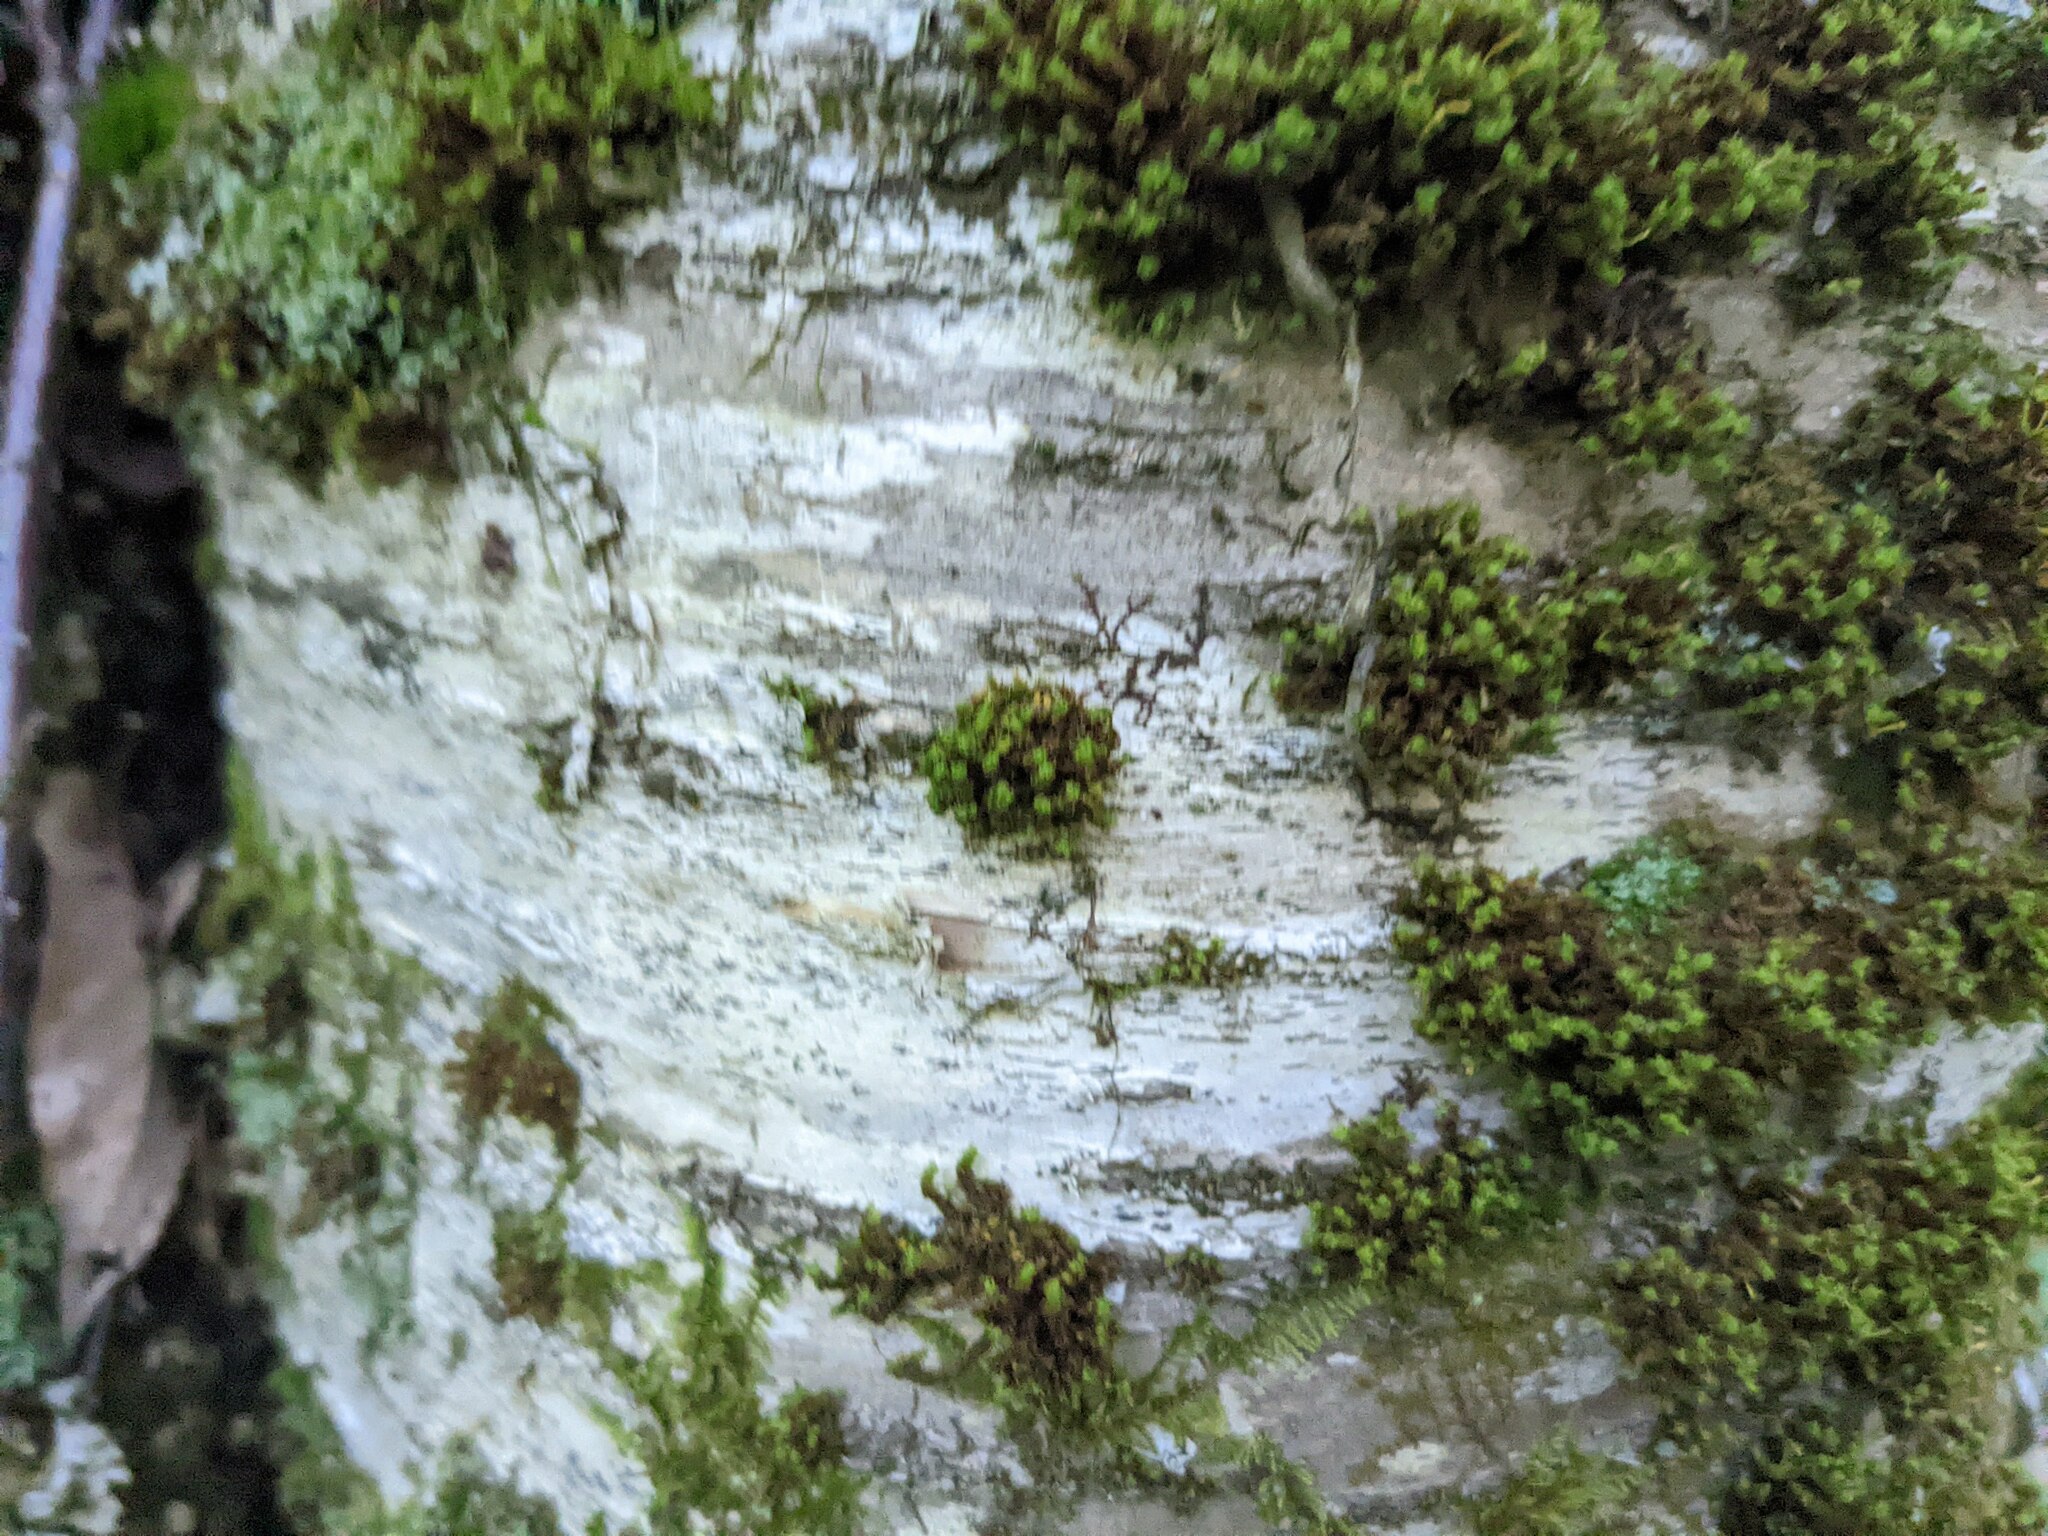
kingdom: Plantae
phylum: Bryophyta
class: Bryopsida
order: Orthotrichales
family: Orthotrichaceae
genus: Ulota
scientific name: Ulota crispa
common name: Crisped pincushion moss
